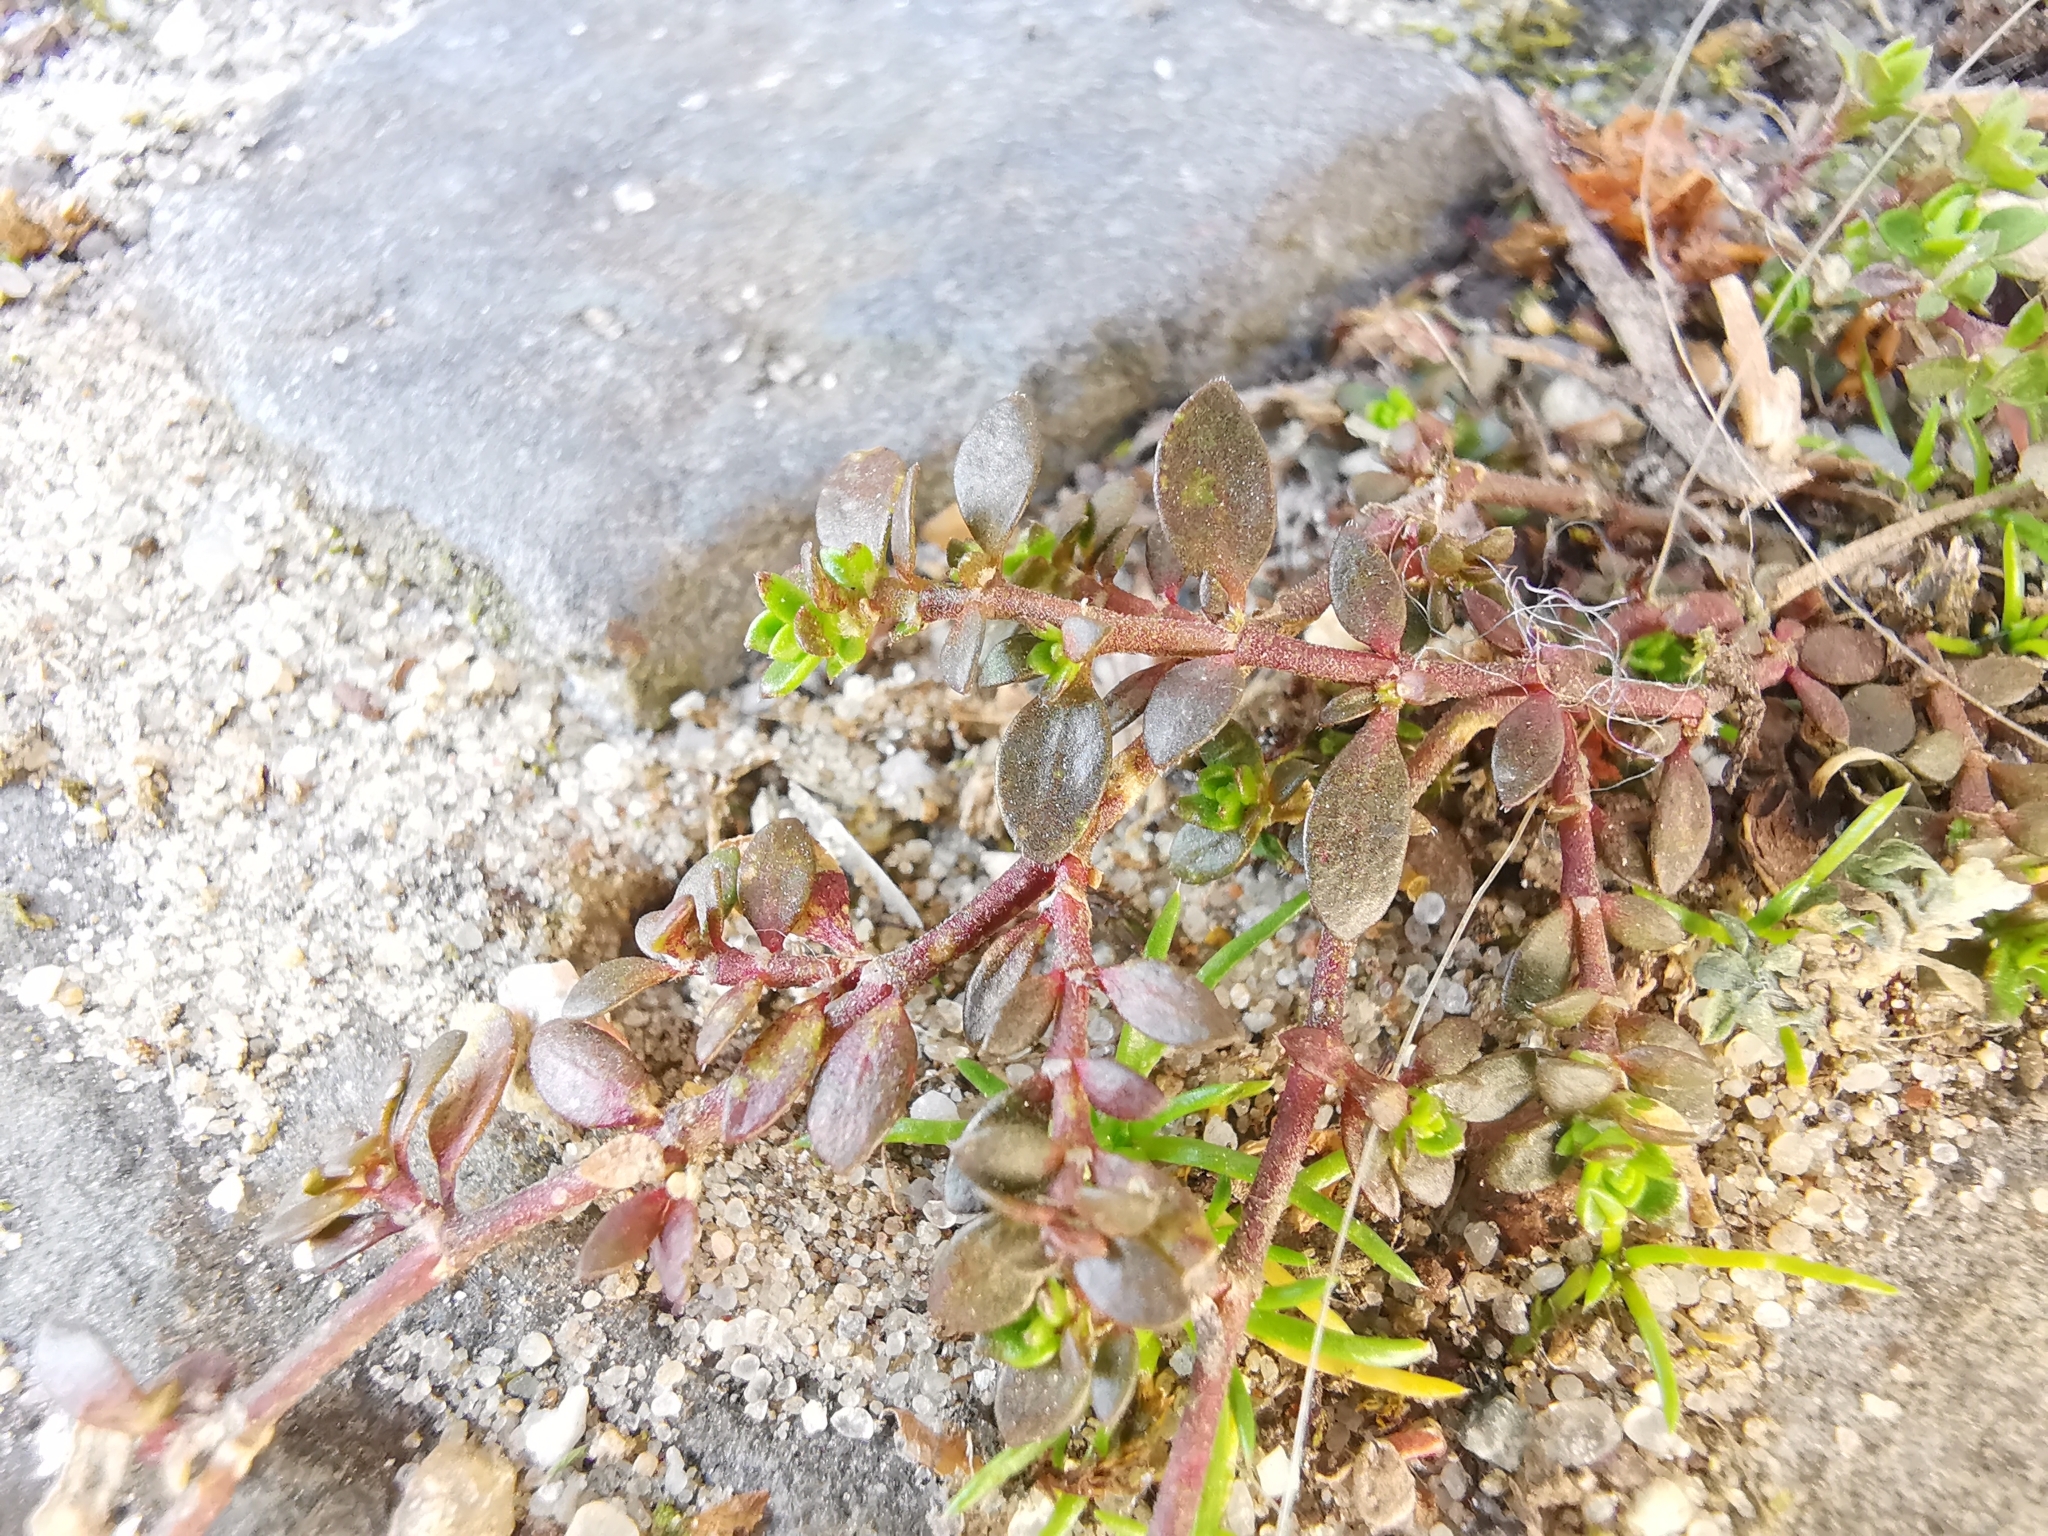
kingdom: Plantae
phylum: Tracheophyta
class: Magnoliopsida
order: Caryophyllales
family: Caryophyllaceae
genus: Herniaria
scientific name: Herniaria glabra
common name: Smooth rupturewort
